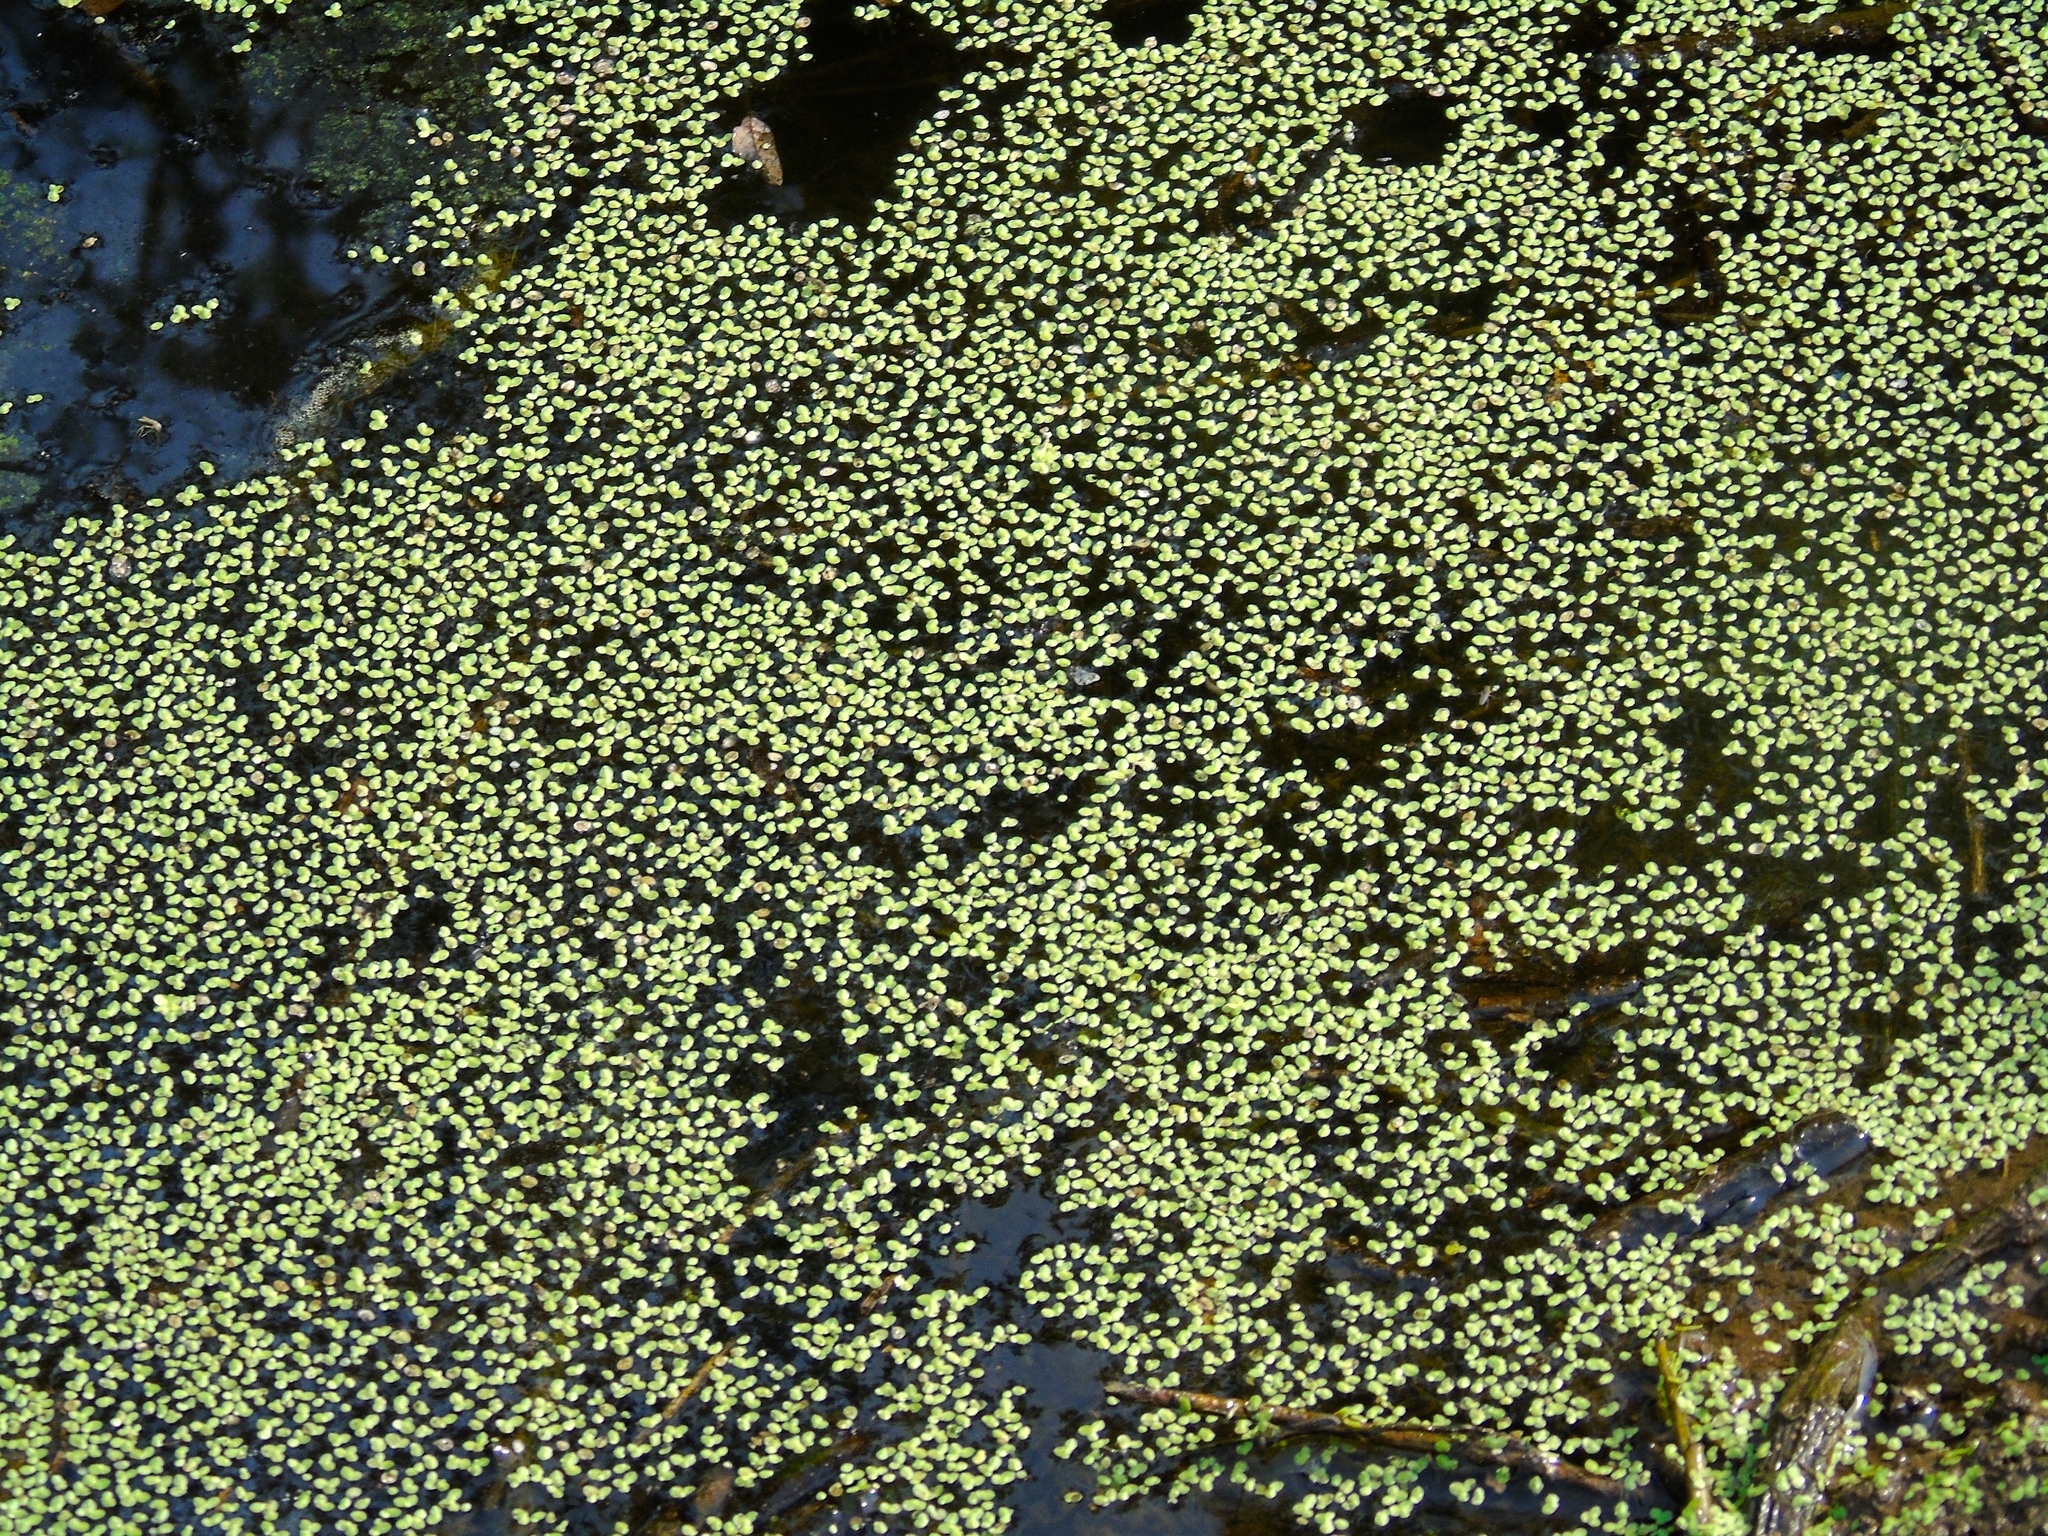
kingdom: Plantae
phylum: Tracheophyta
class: Liliopsida
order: Alismatales
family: Araceae
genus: Lemna
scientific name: Lemna
